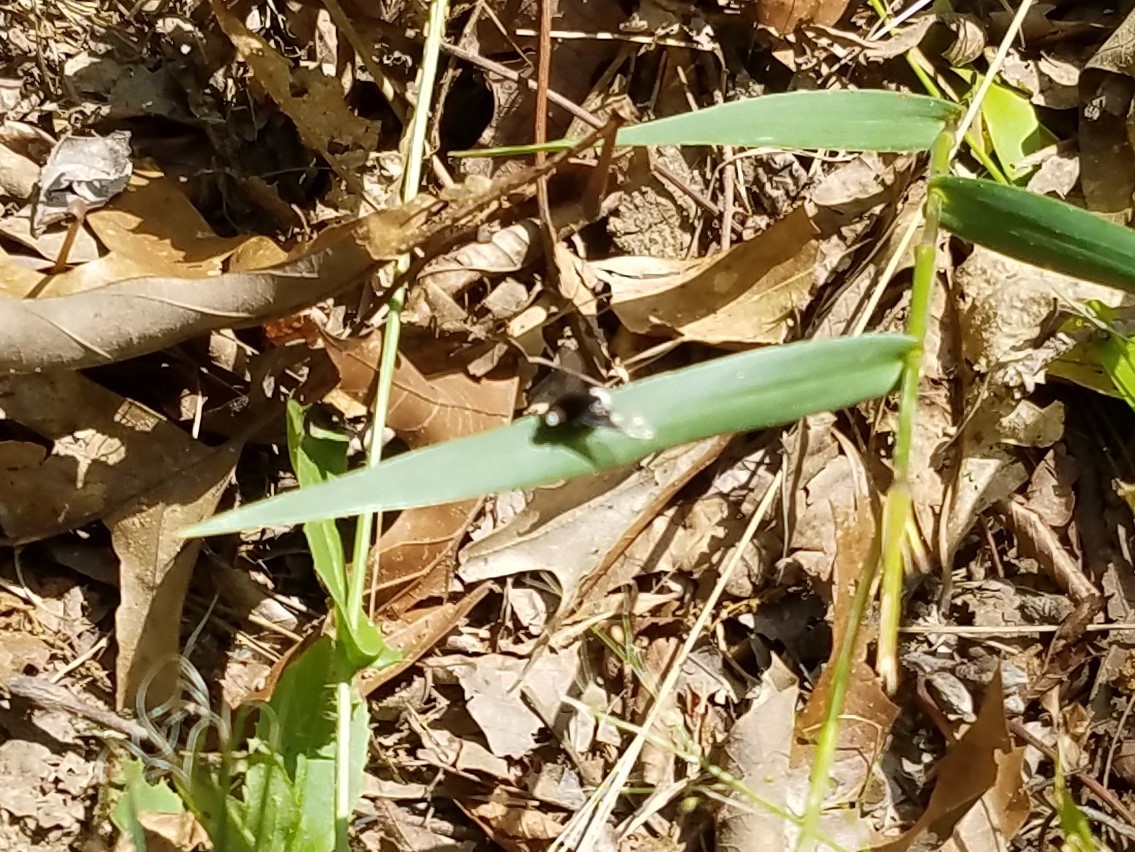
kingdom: Animalia
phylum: Arthropoda
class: Insecta
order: Diptera
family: Bombyliidae
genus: Ogcodocera
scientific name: Ogcodocera leucoprocta
